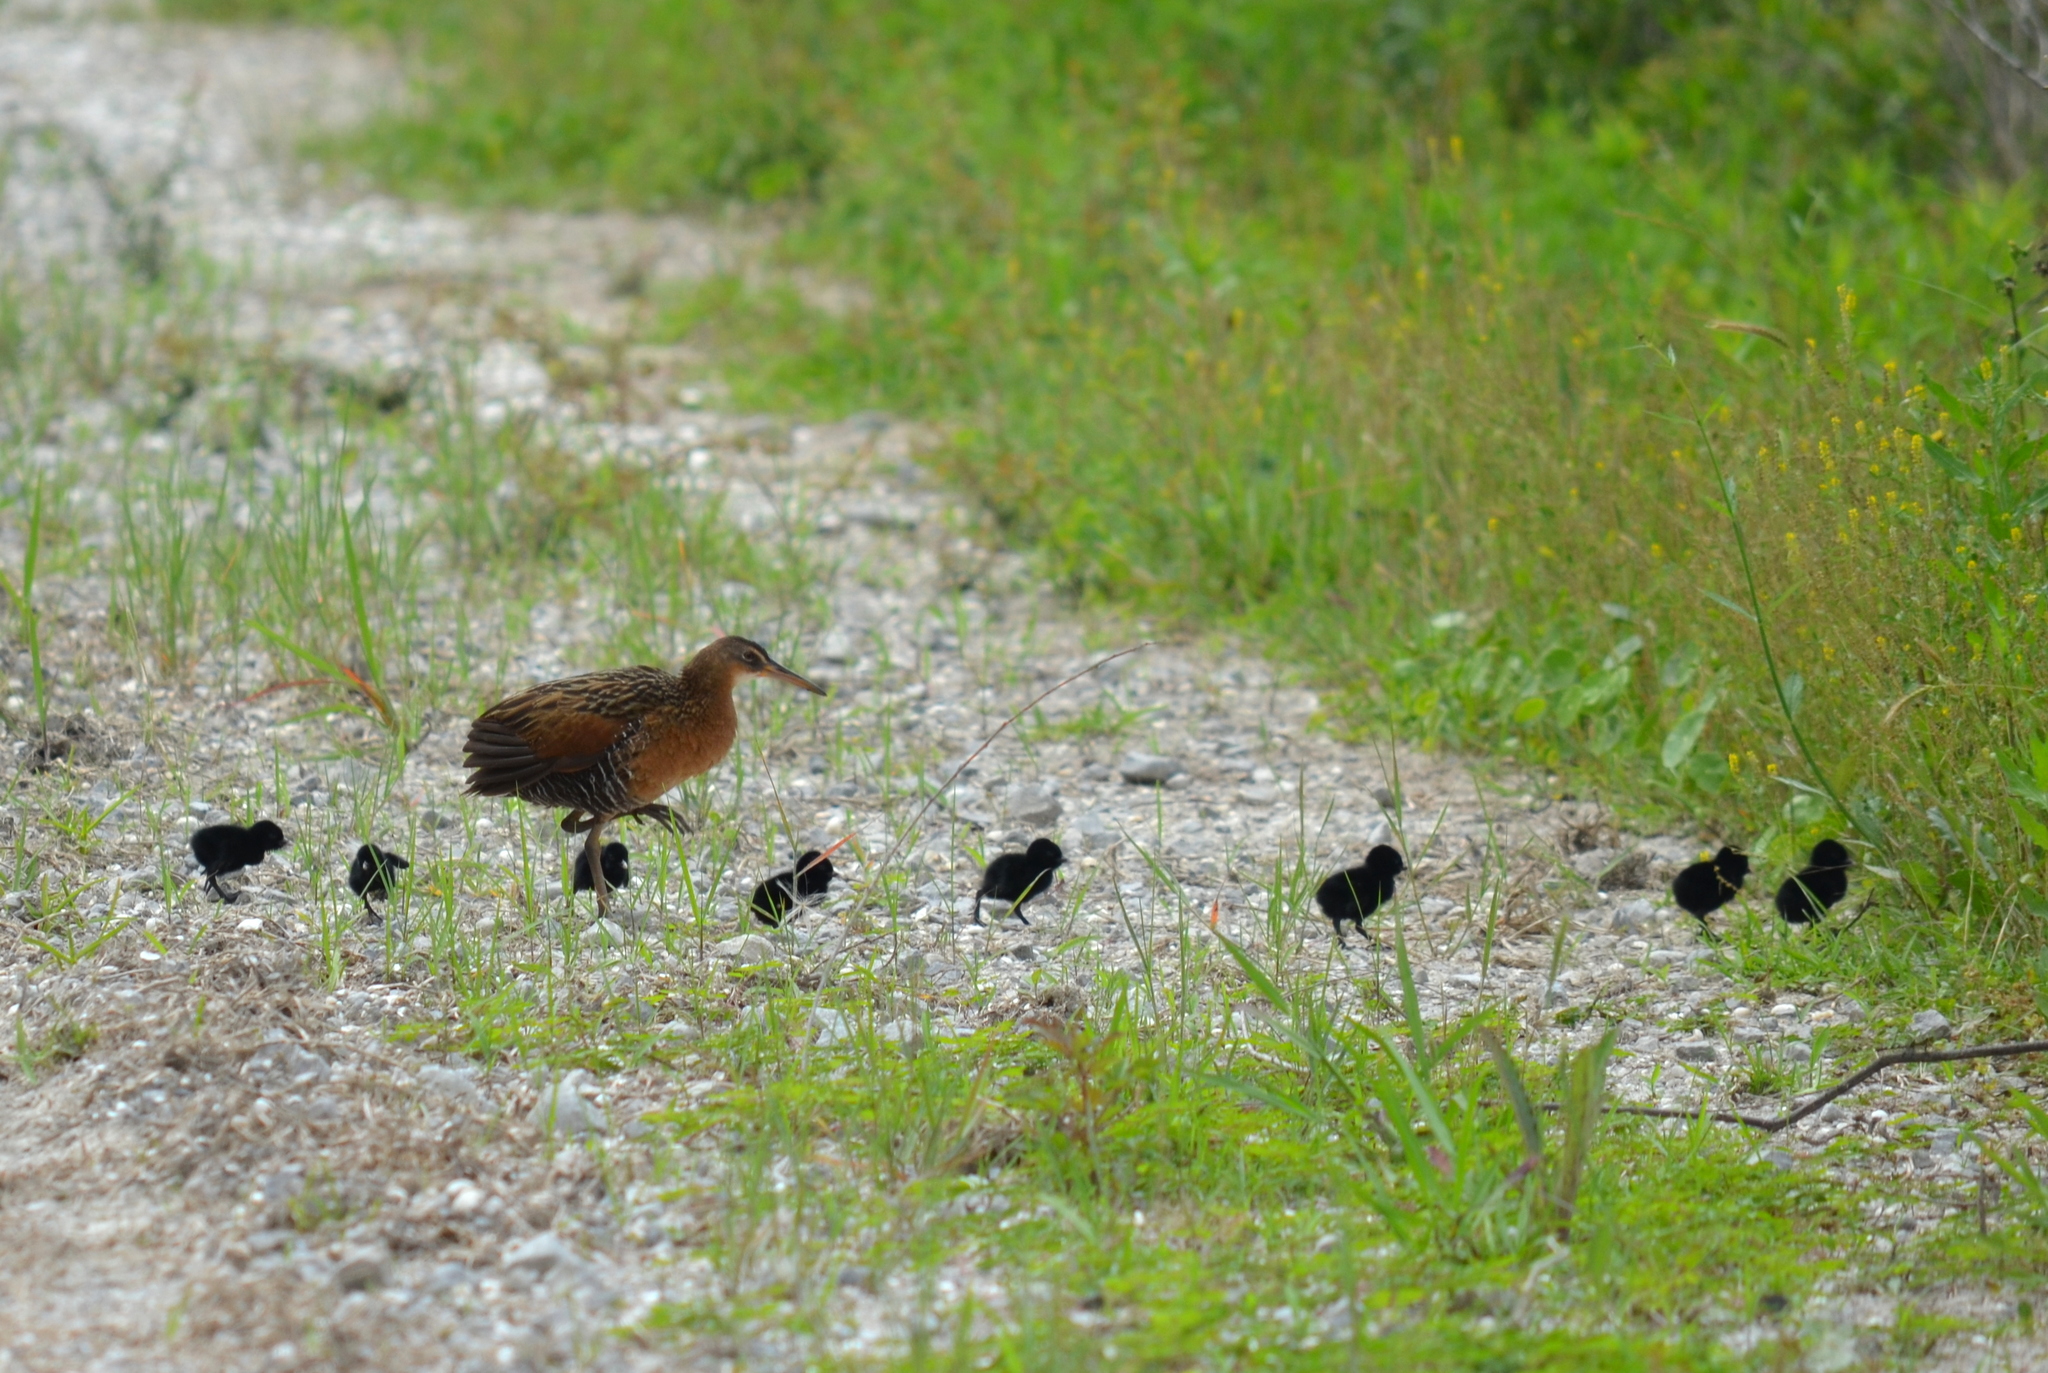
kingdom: Animalia
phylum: Chordata
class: Aves
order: Gruiformes
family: Rallidae
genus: Rallus
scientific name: Rallus elegans
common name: King rail
